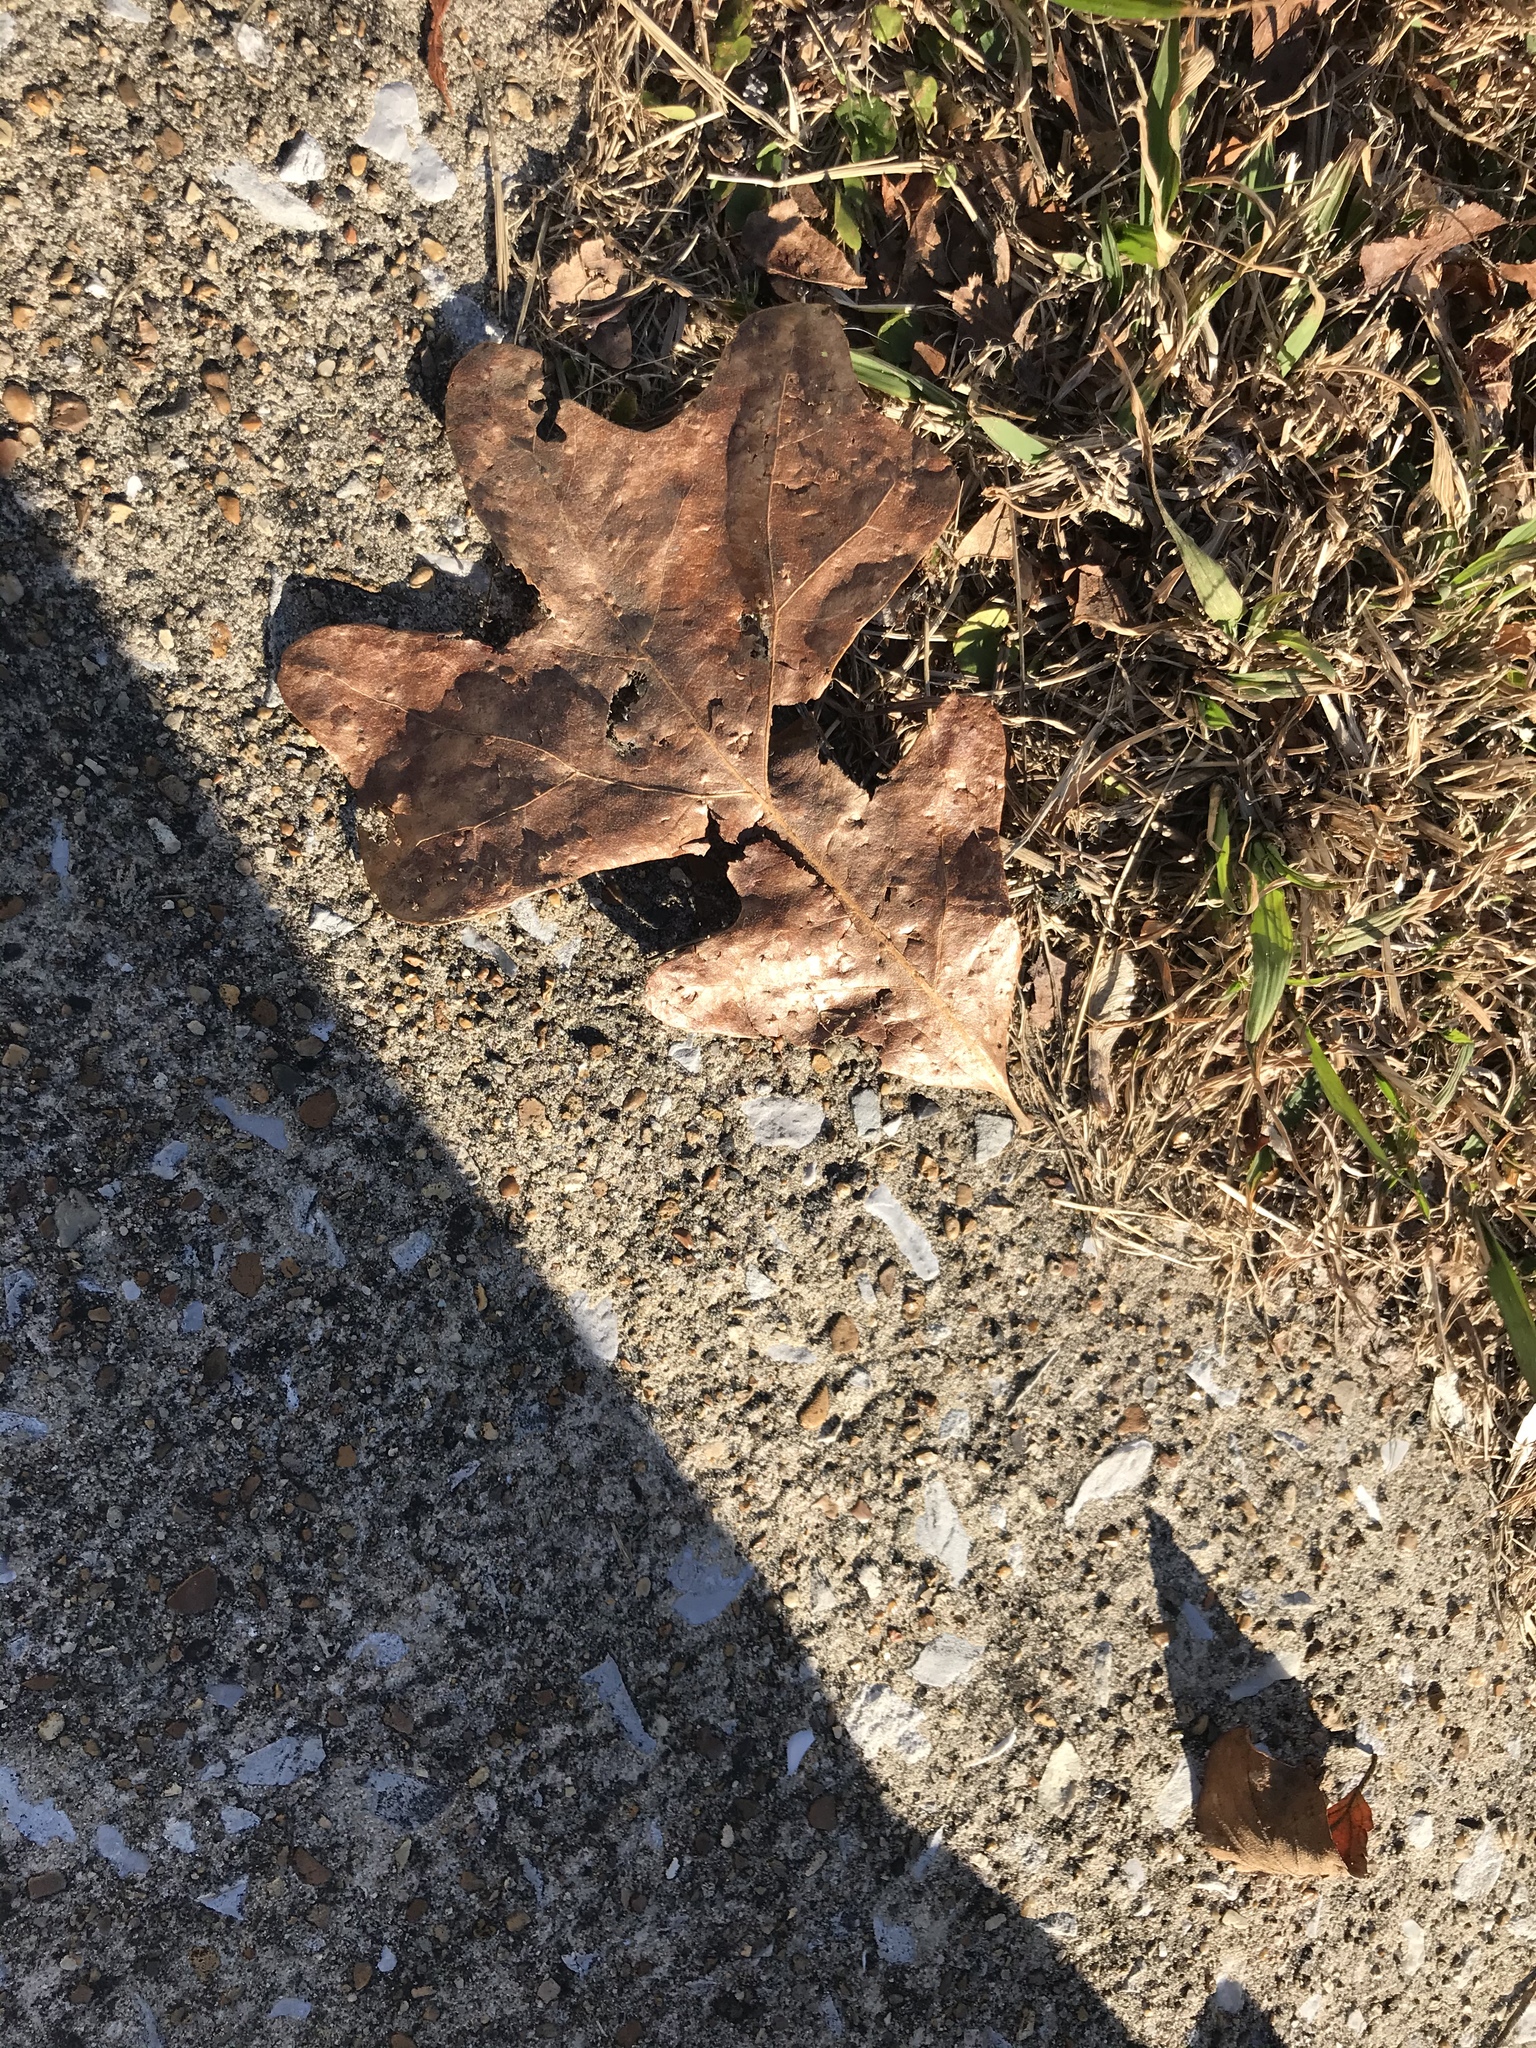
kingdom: Plantae
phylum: Tracheophyta
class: Magnoliopsida
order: Fagales
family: Fagaceae
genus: Quercus
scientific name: Quercus stellata
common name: Post oak
